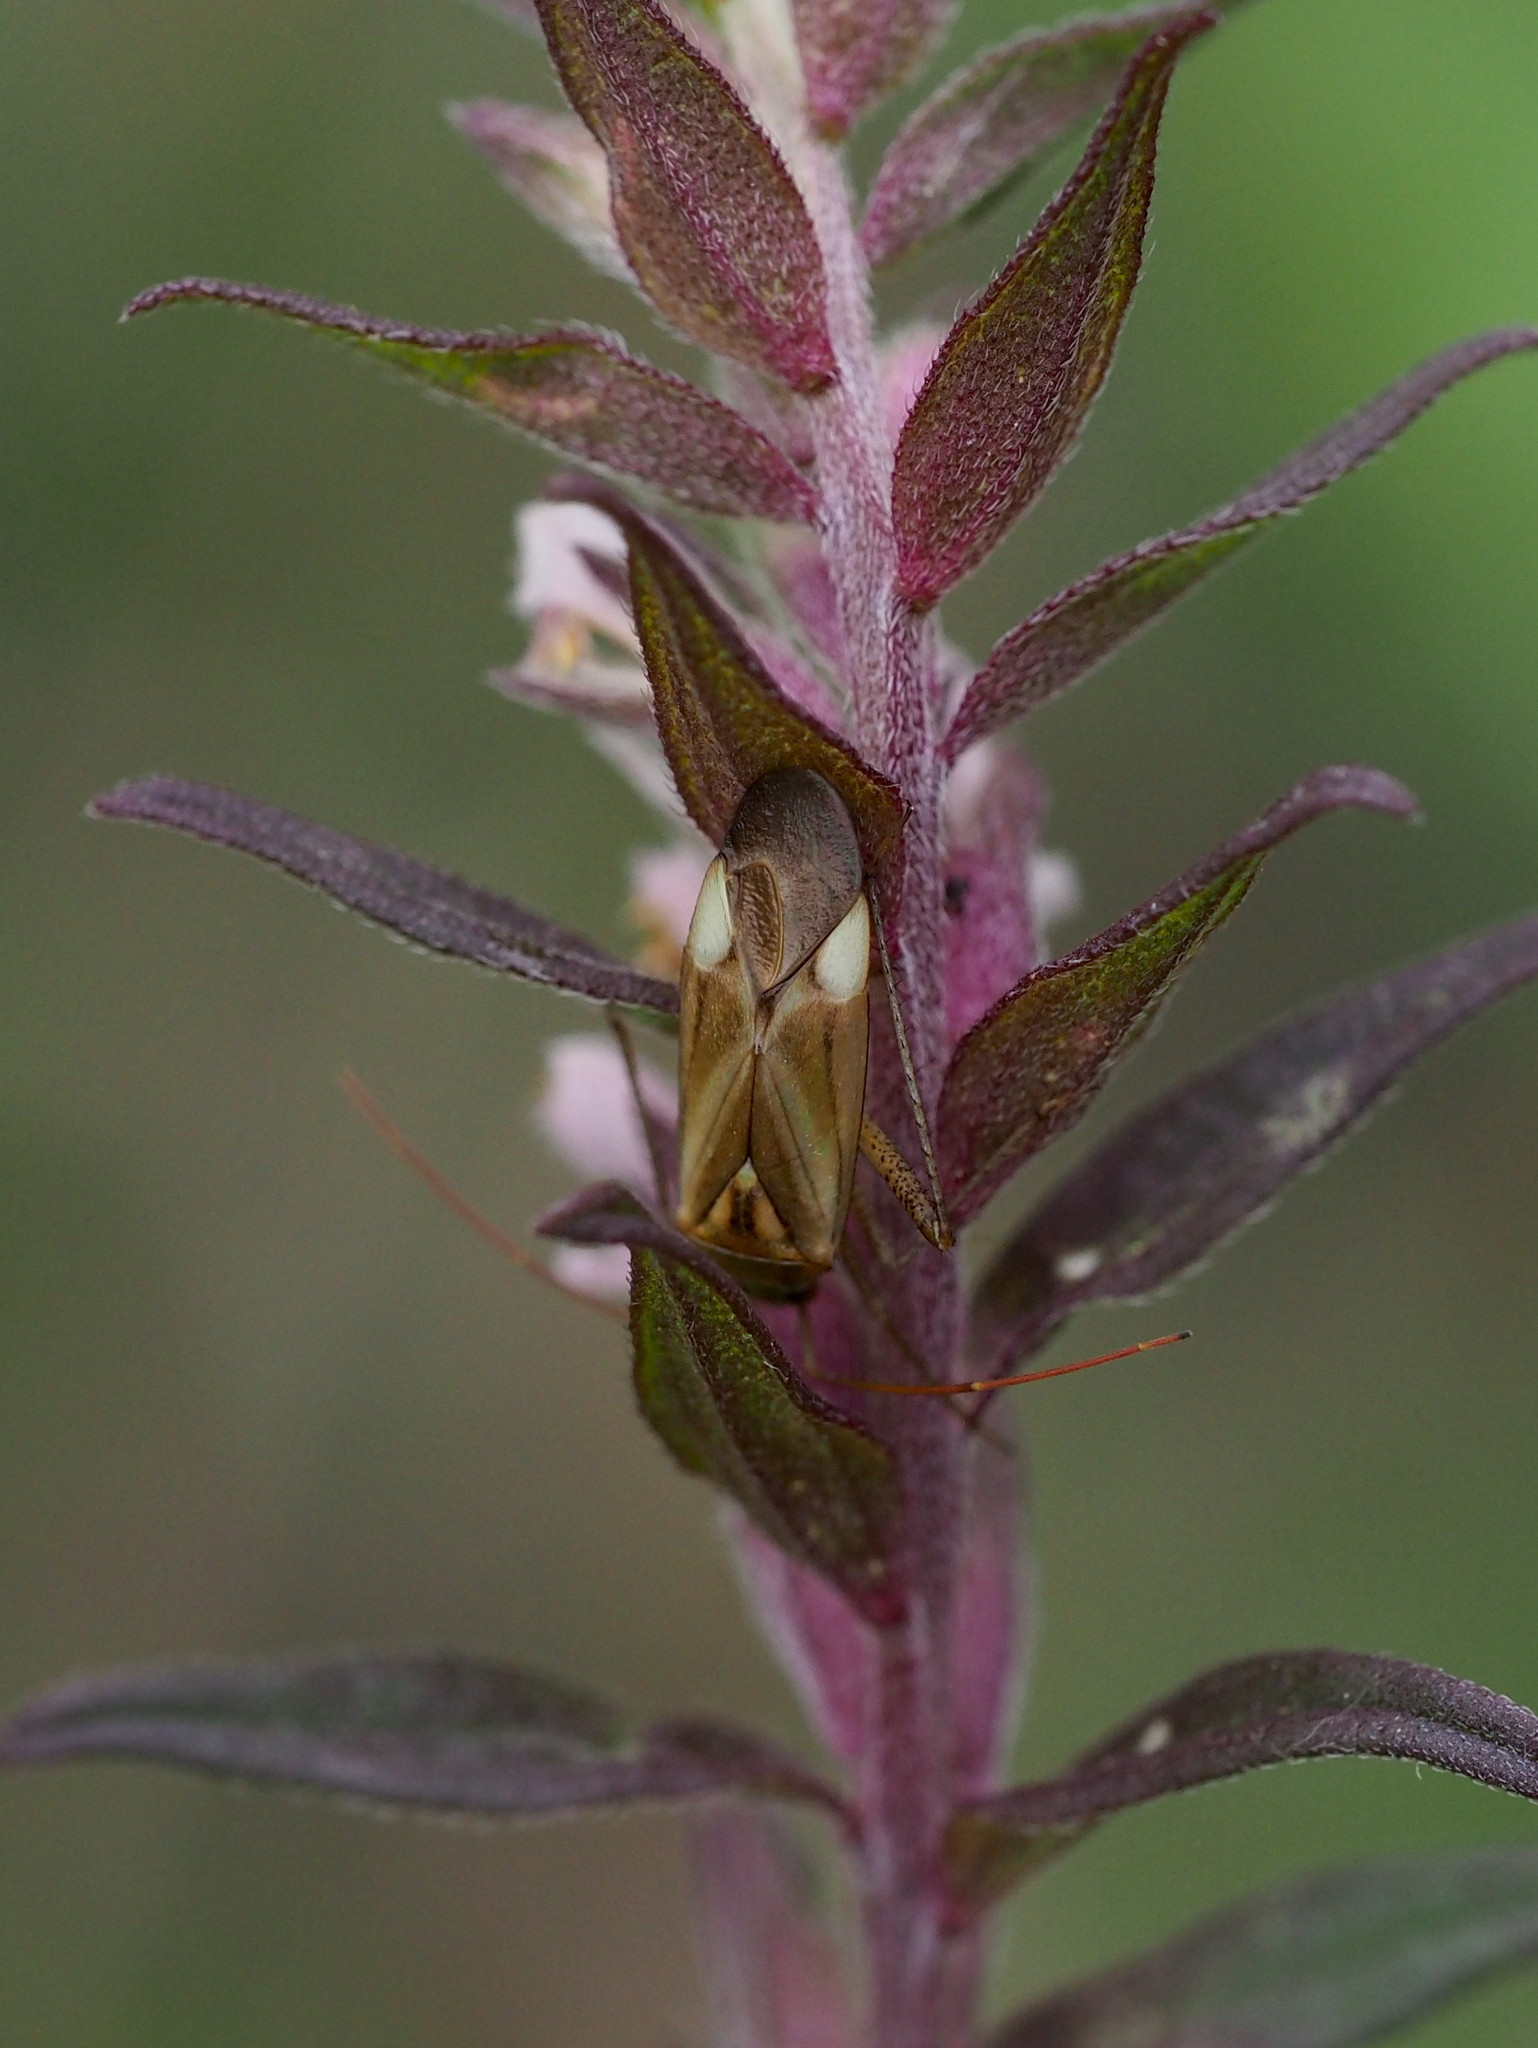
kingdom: Animalia
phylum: Arthropoda
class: Insecta
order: Hemiptera
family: Miridae
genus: Adelphocoris
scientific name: Adelphocoris lineolatus
